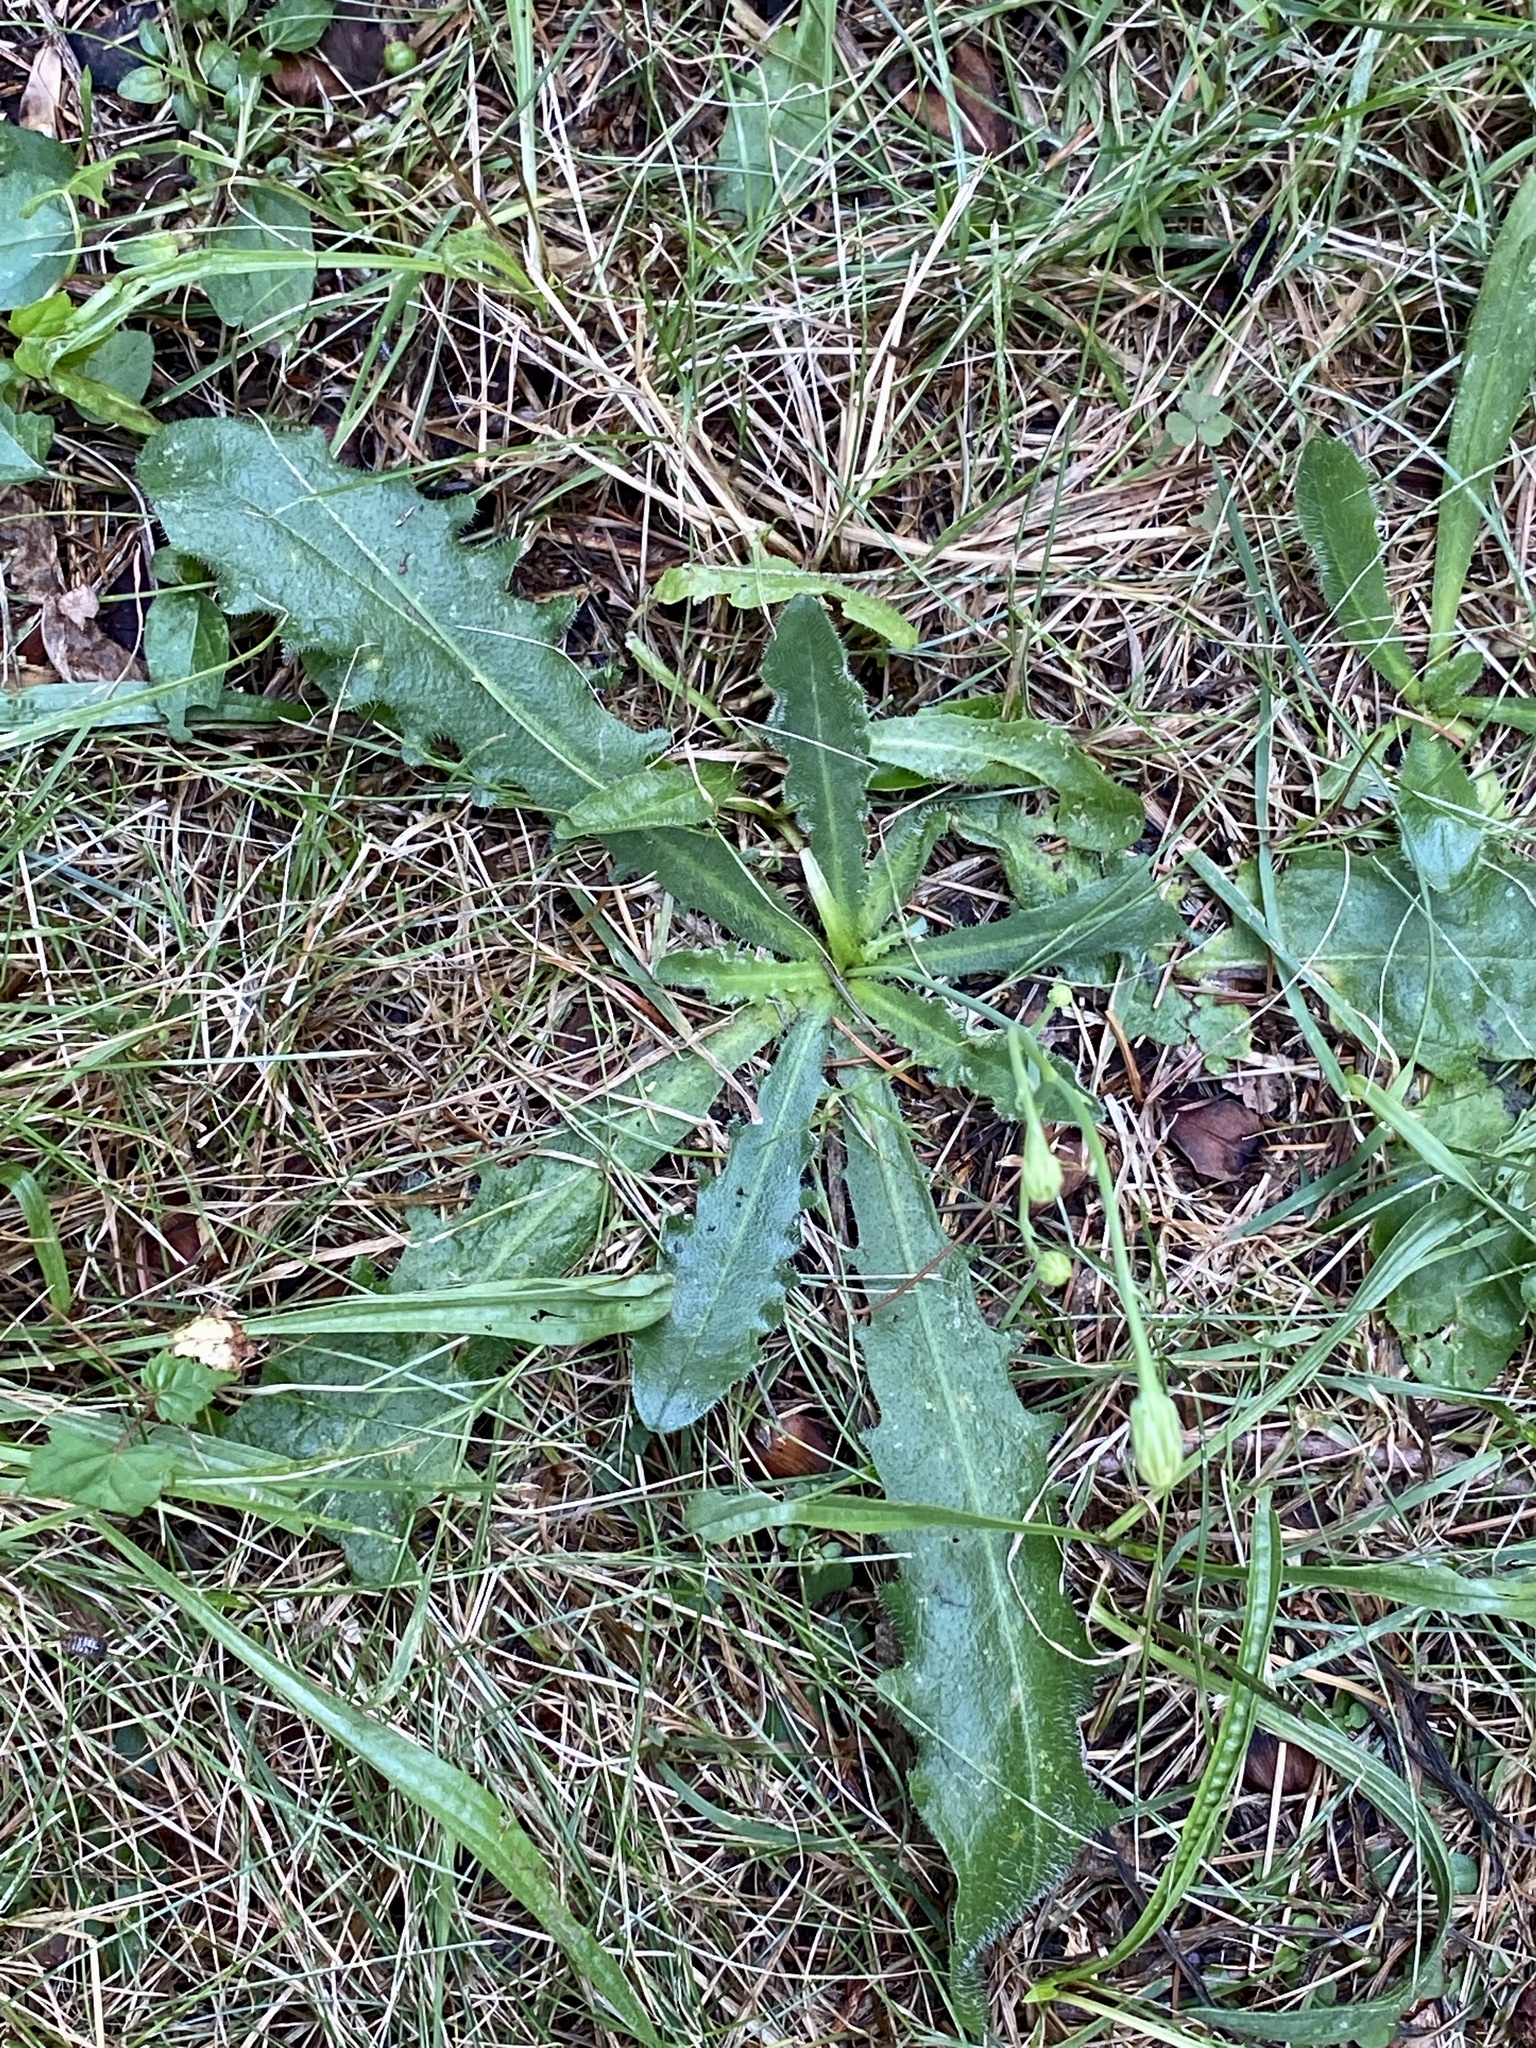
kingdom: Plantae
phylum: Tracheophyta
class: Magnoliopsida
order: Asterales
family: Asteraceae
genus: Hypochaeris
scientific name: Hypochaeris radicata
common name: Flatweed
